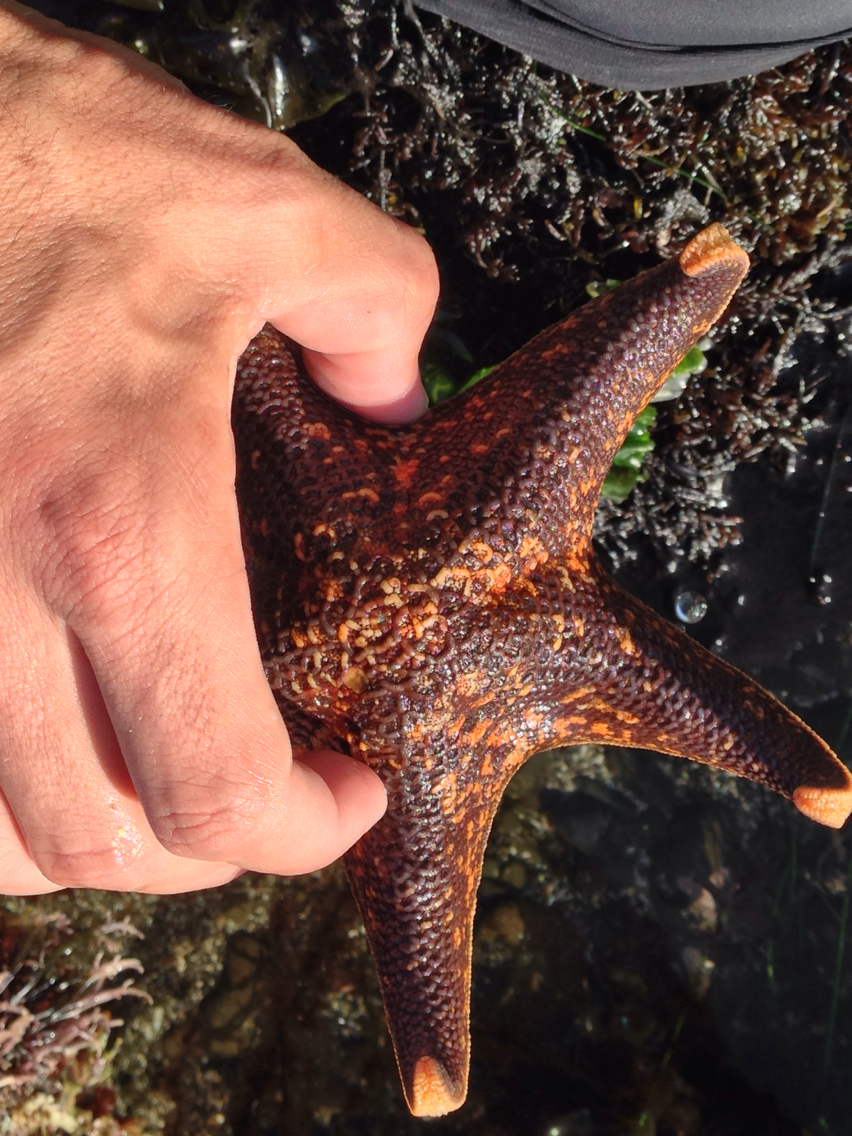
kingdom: Animalia
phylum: Echinodermata
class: Asteroidea
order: Valvatida
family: Asterinidae
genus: Patiria
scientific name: Patiria miniata
